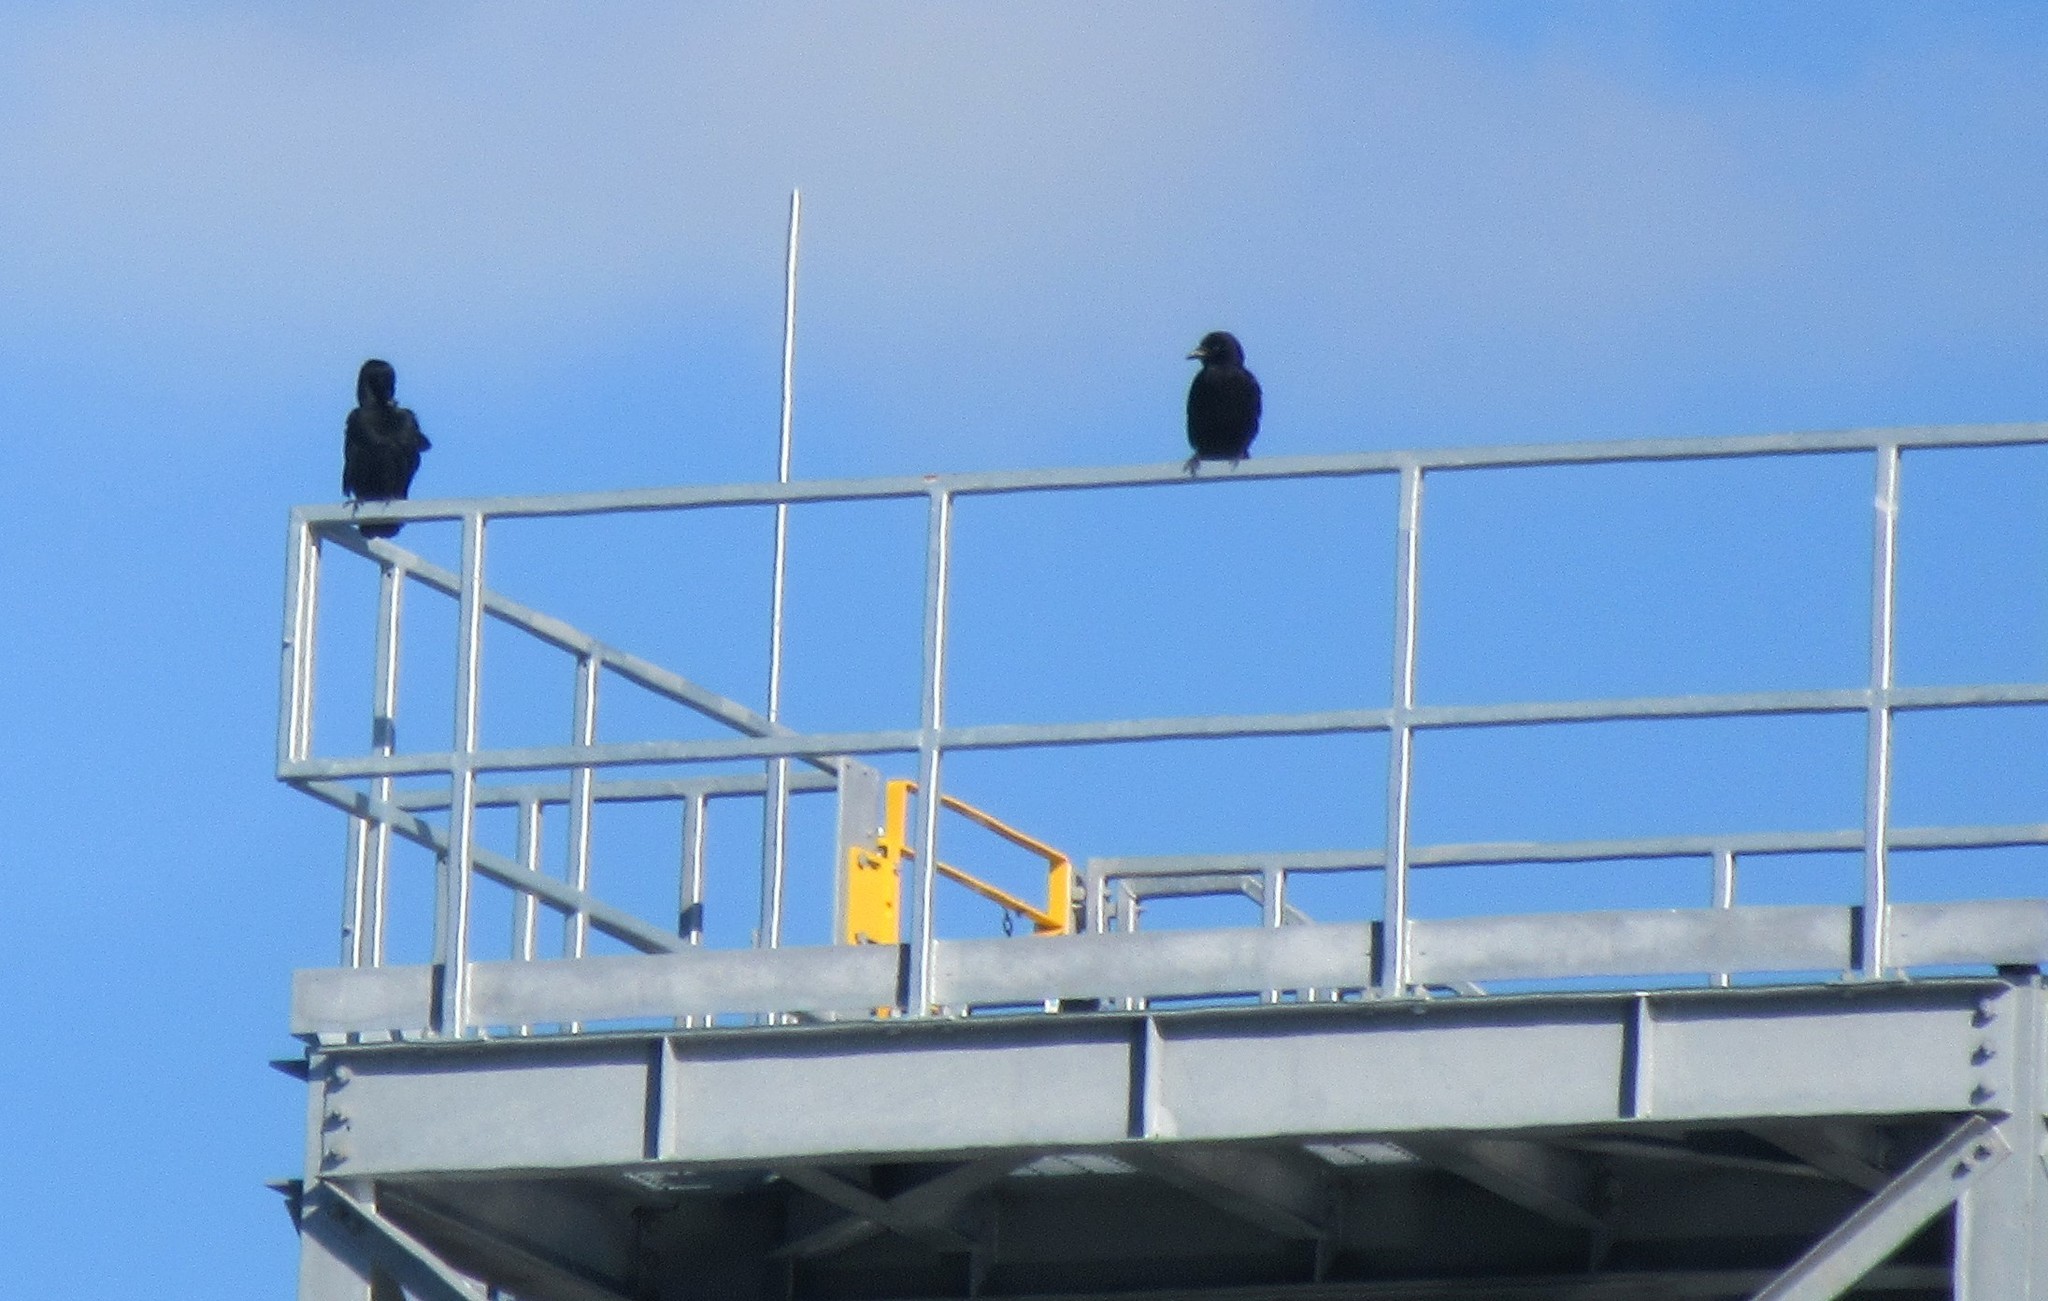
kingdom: Animalia
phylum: Chordata
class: Aves
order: Passeriformes
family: Corvidae
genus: Corvus
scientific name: Corvus brachyrhynchos
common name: American crow
